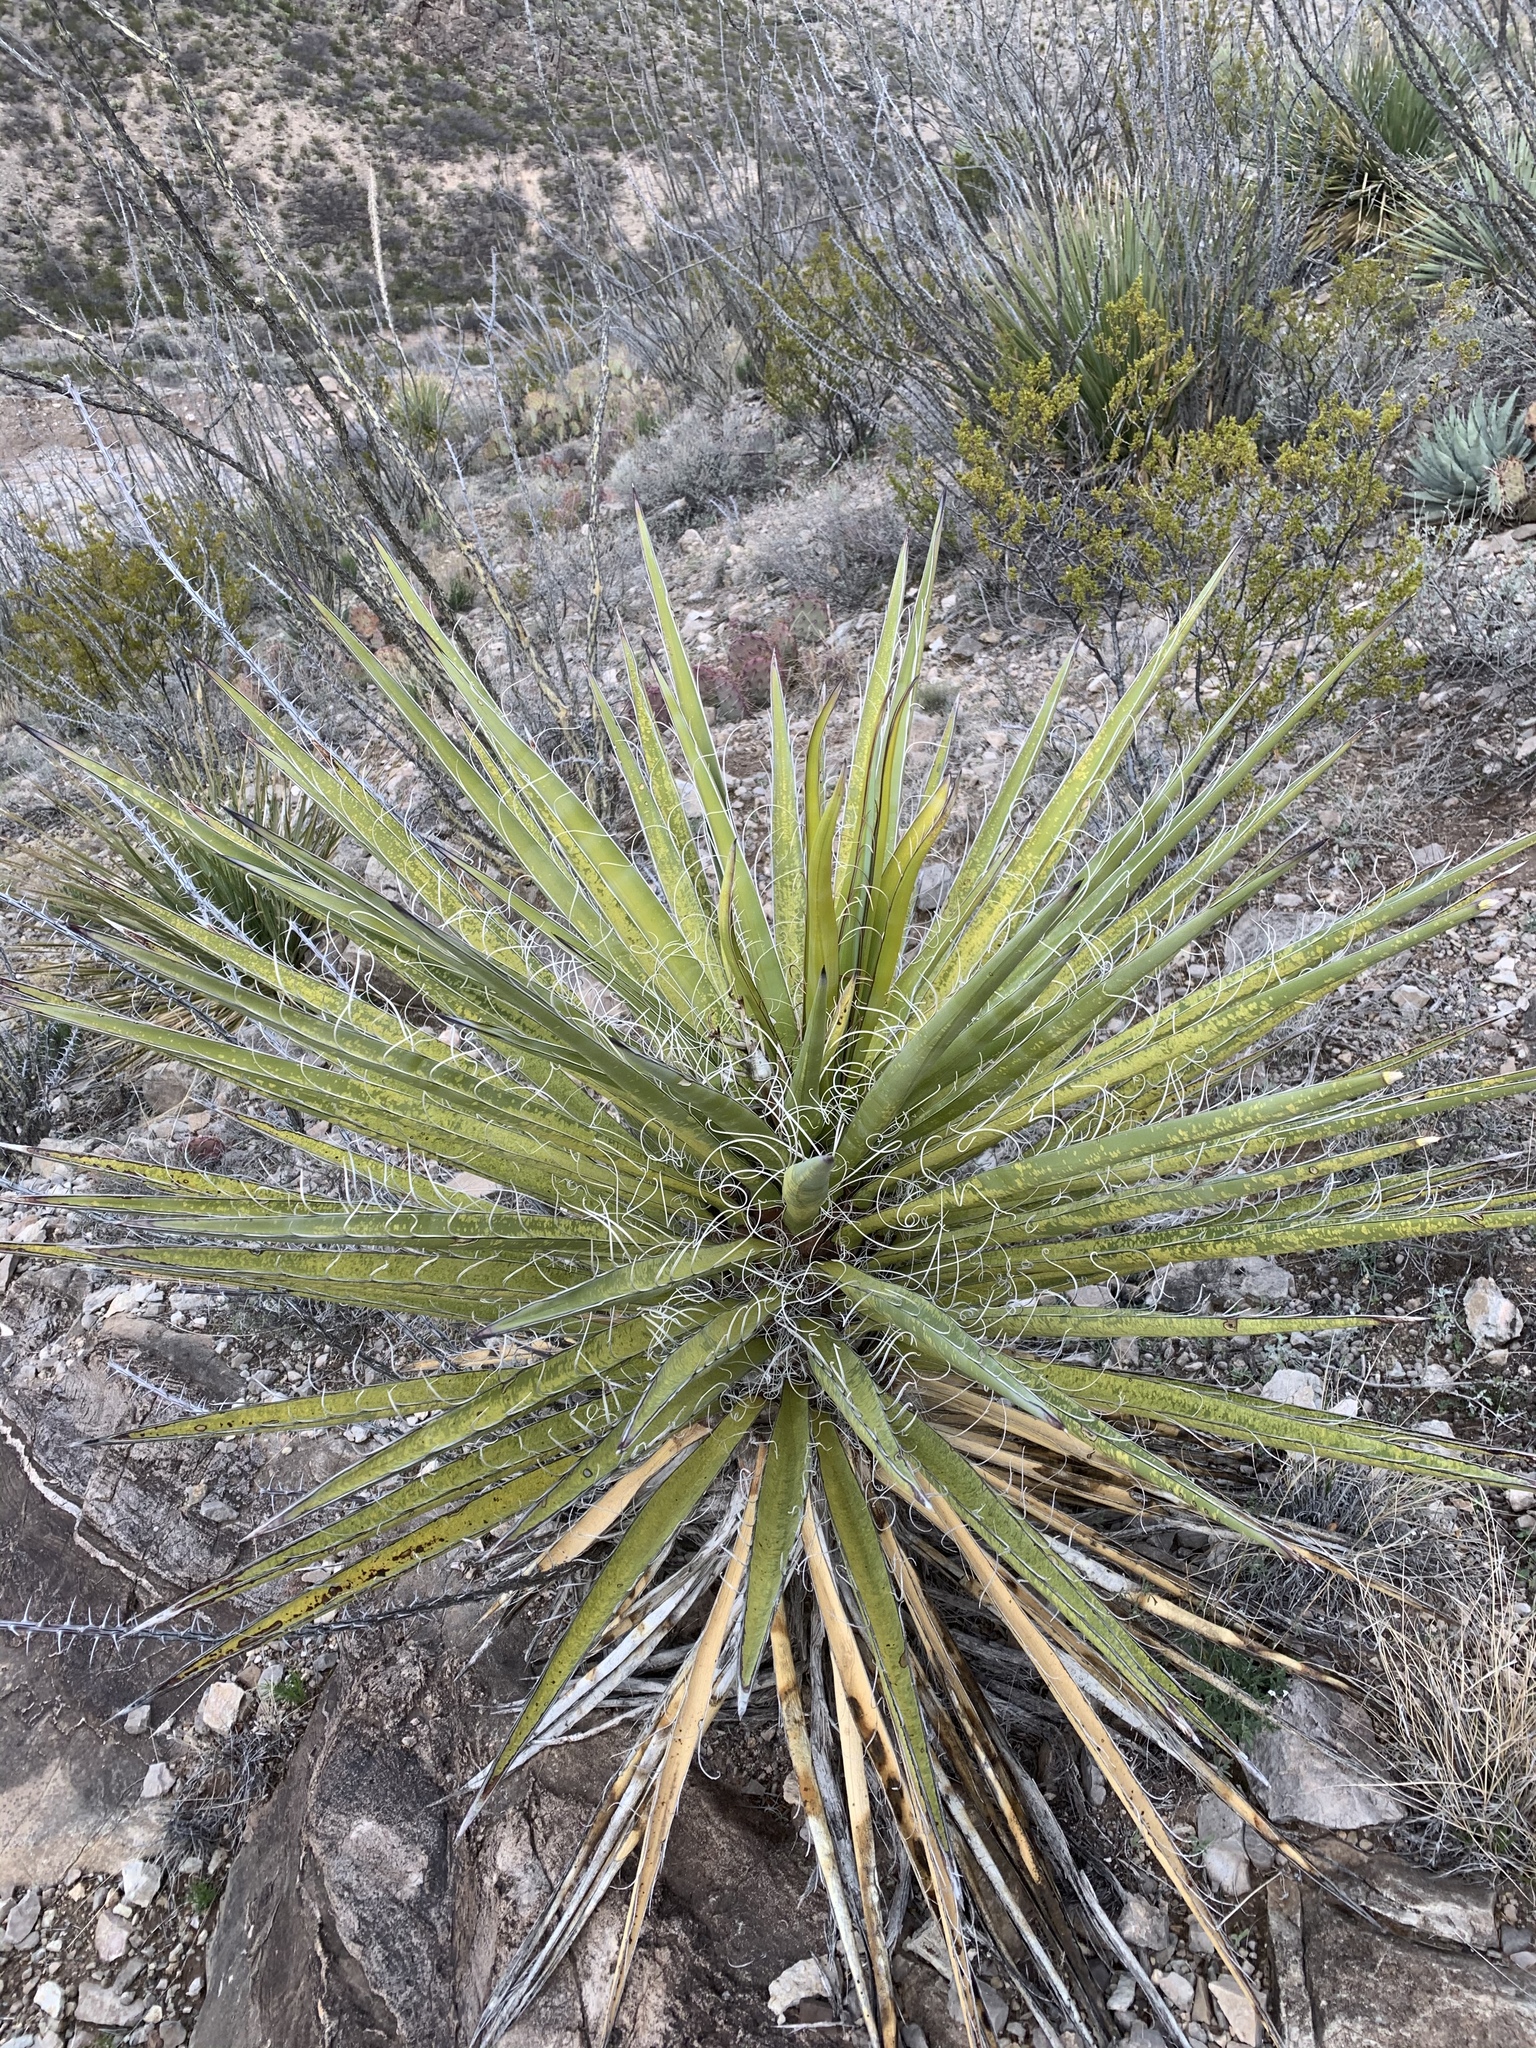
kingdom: Plantae
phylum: Tracheophyta
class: Liliopsida
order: Asparagales
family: Asparagaceae
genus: Yucca
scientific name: Yucca treculiana
